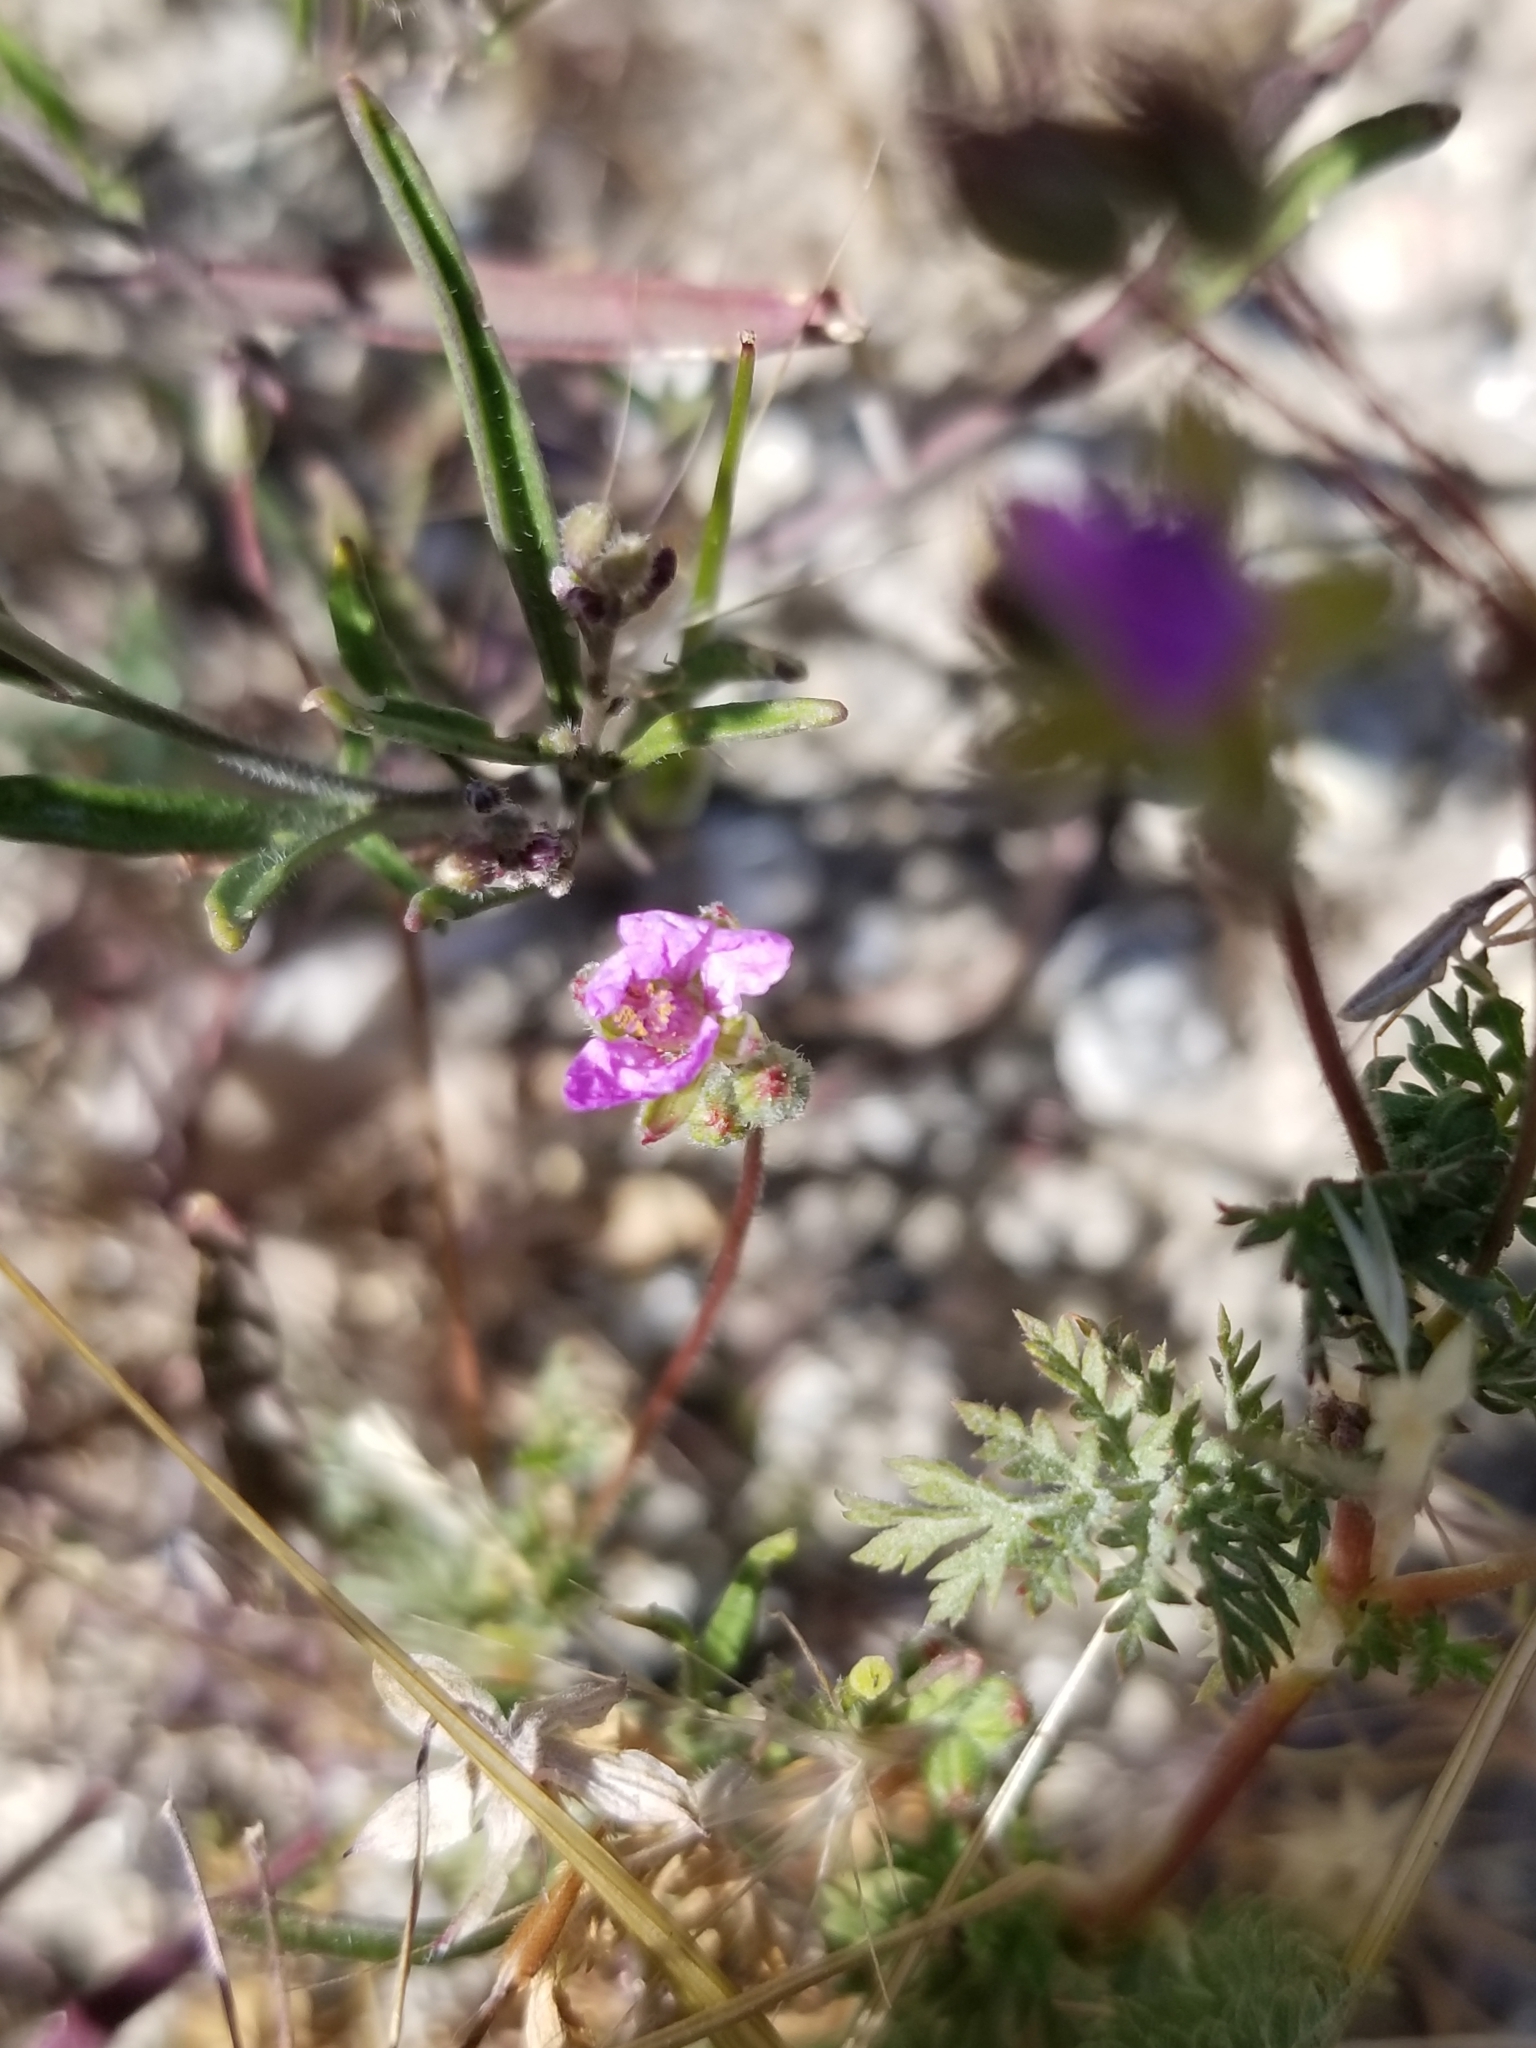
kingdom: Plantae
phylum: Tracheophyta
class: Magnoliopsida
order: Geraniales
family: Geraniaceae
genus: Erodium
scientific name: Erodium cicutarium
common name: Common stork's-bill
